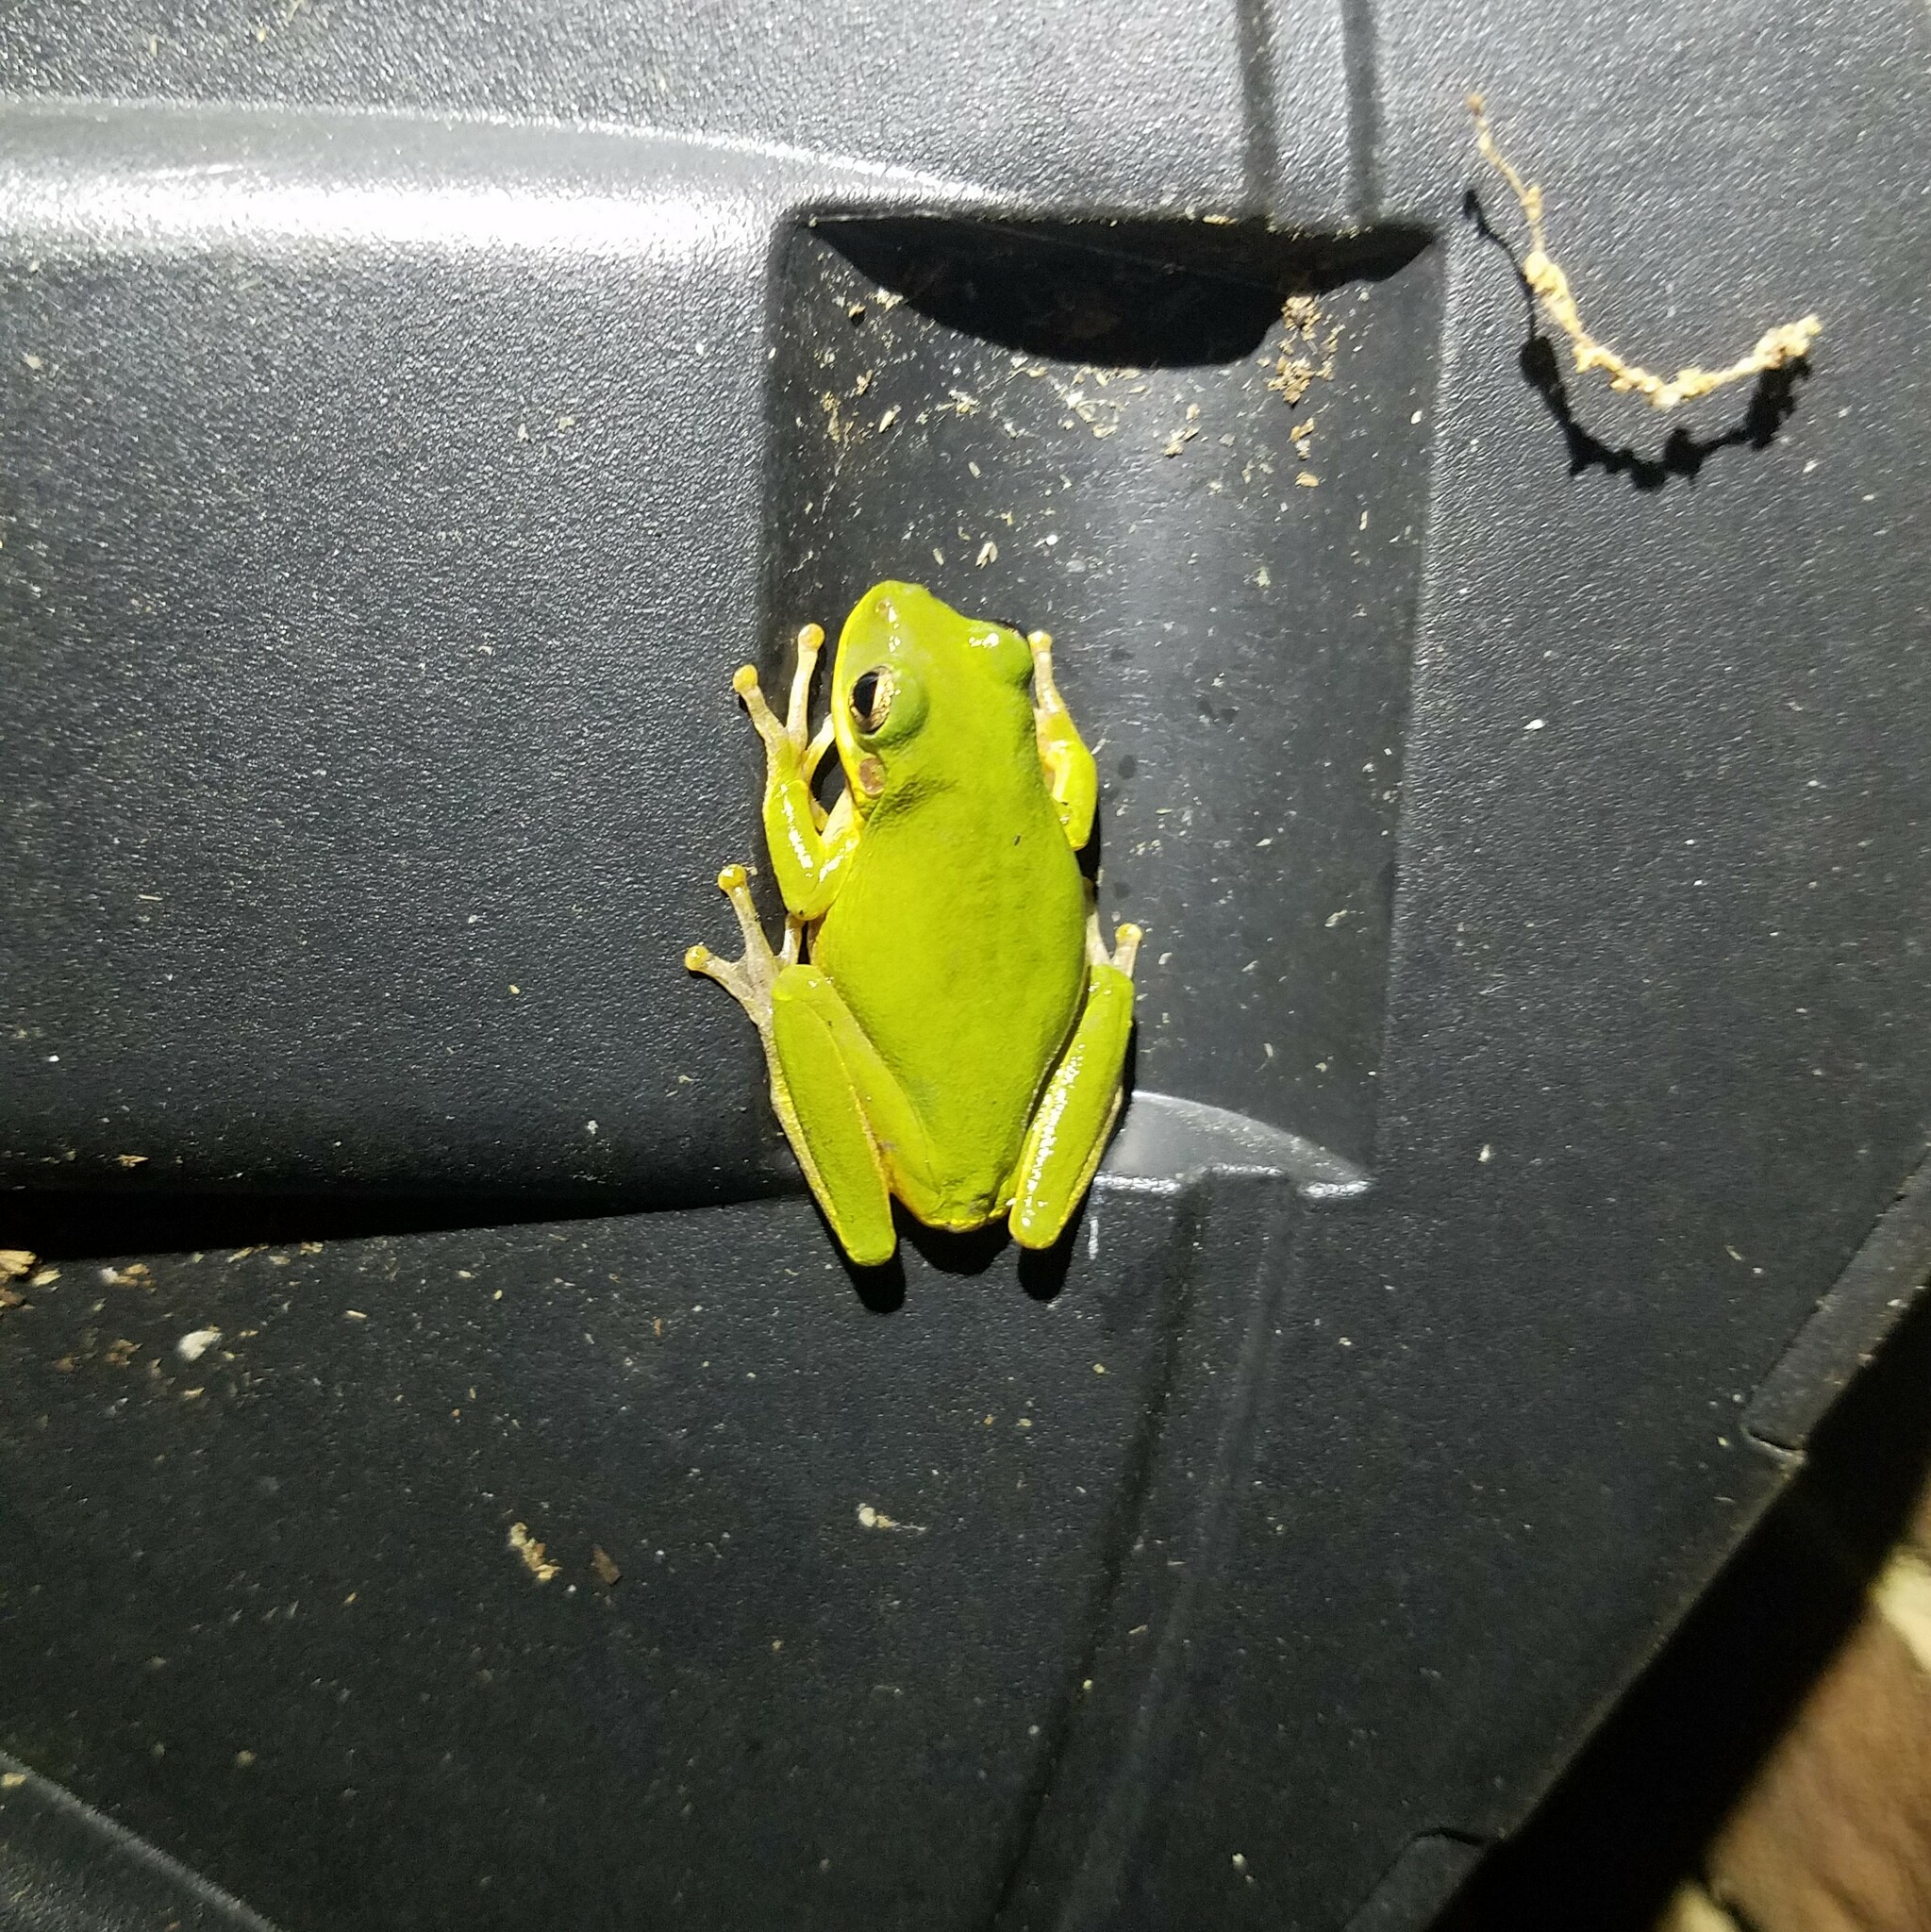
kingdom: Animalia
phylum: Chordata
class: Amphibia
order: Anura
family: Hylidae
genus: Dryophytes
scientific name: Dryophytes squirellus
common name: Squirrel treefrog
